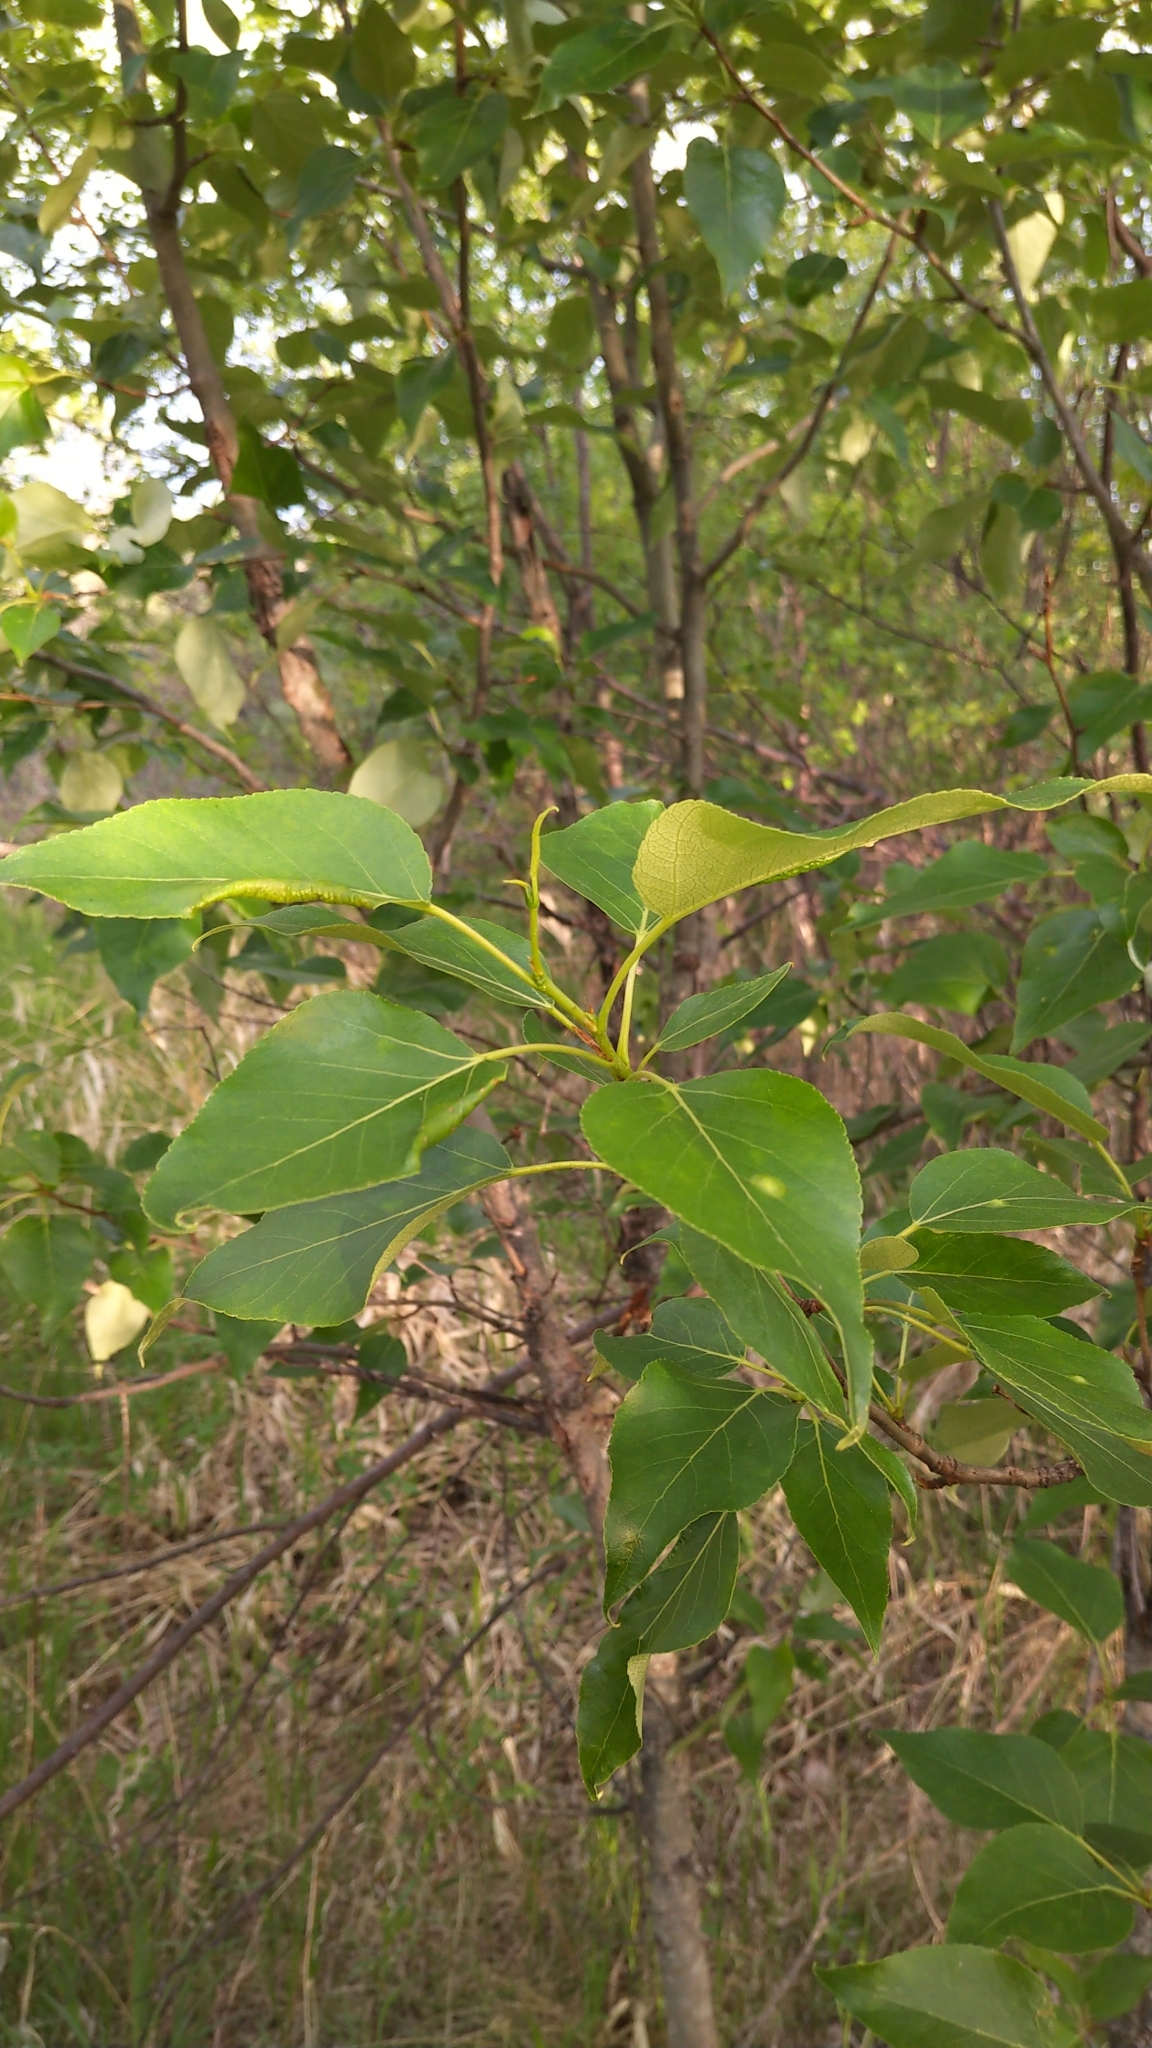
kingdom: Plantae
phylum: Tracheophyta
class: Magnoliopsida
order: Malpighiales
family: Salicaceae
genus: Populus
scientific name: Populus balsamifera
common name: Balsam poplar
